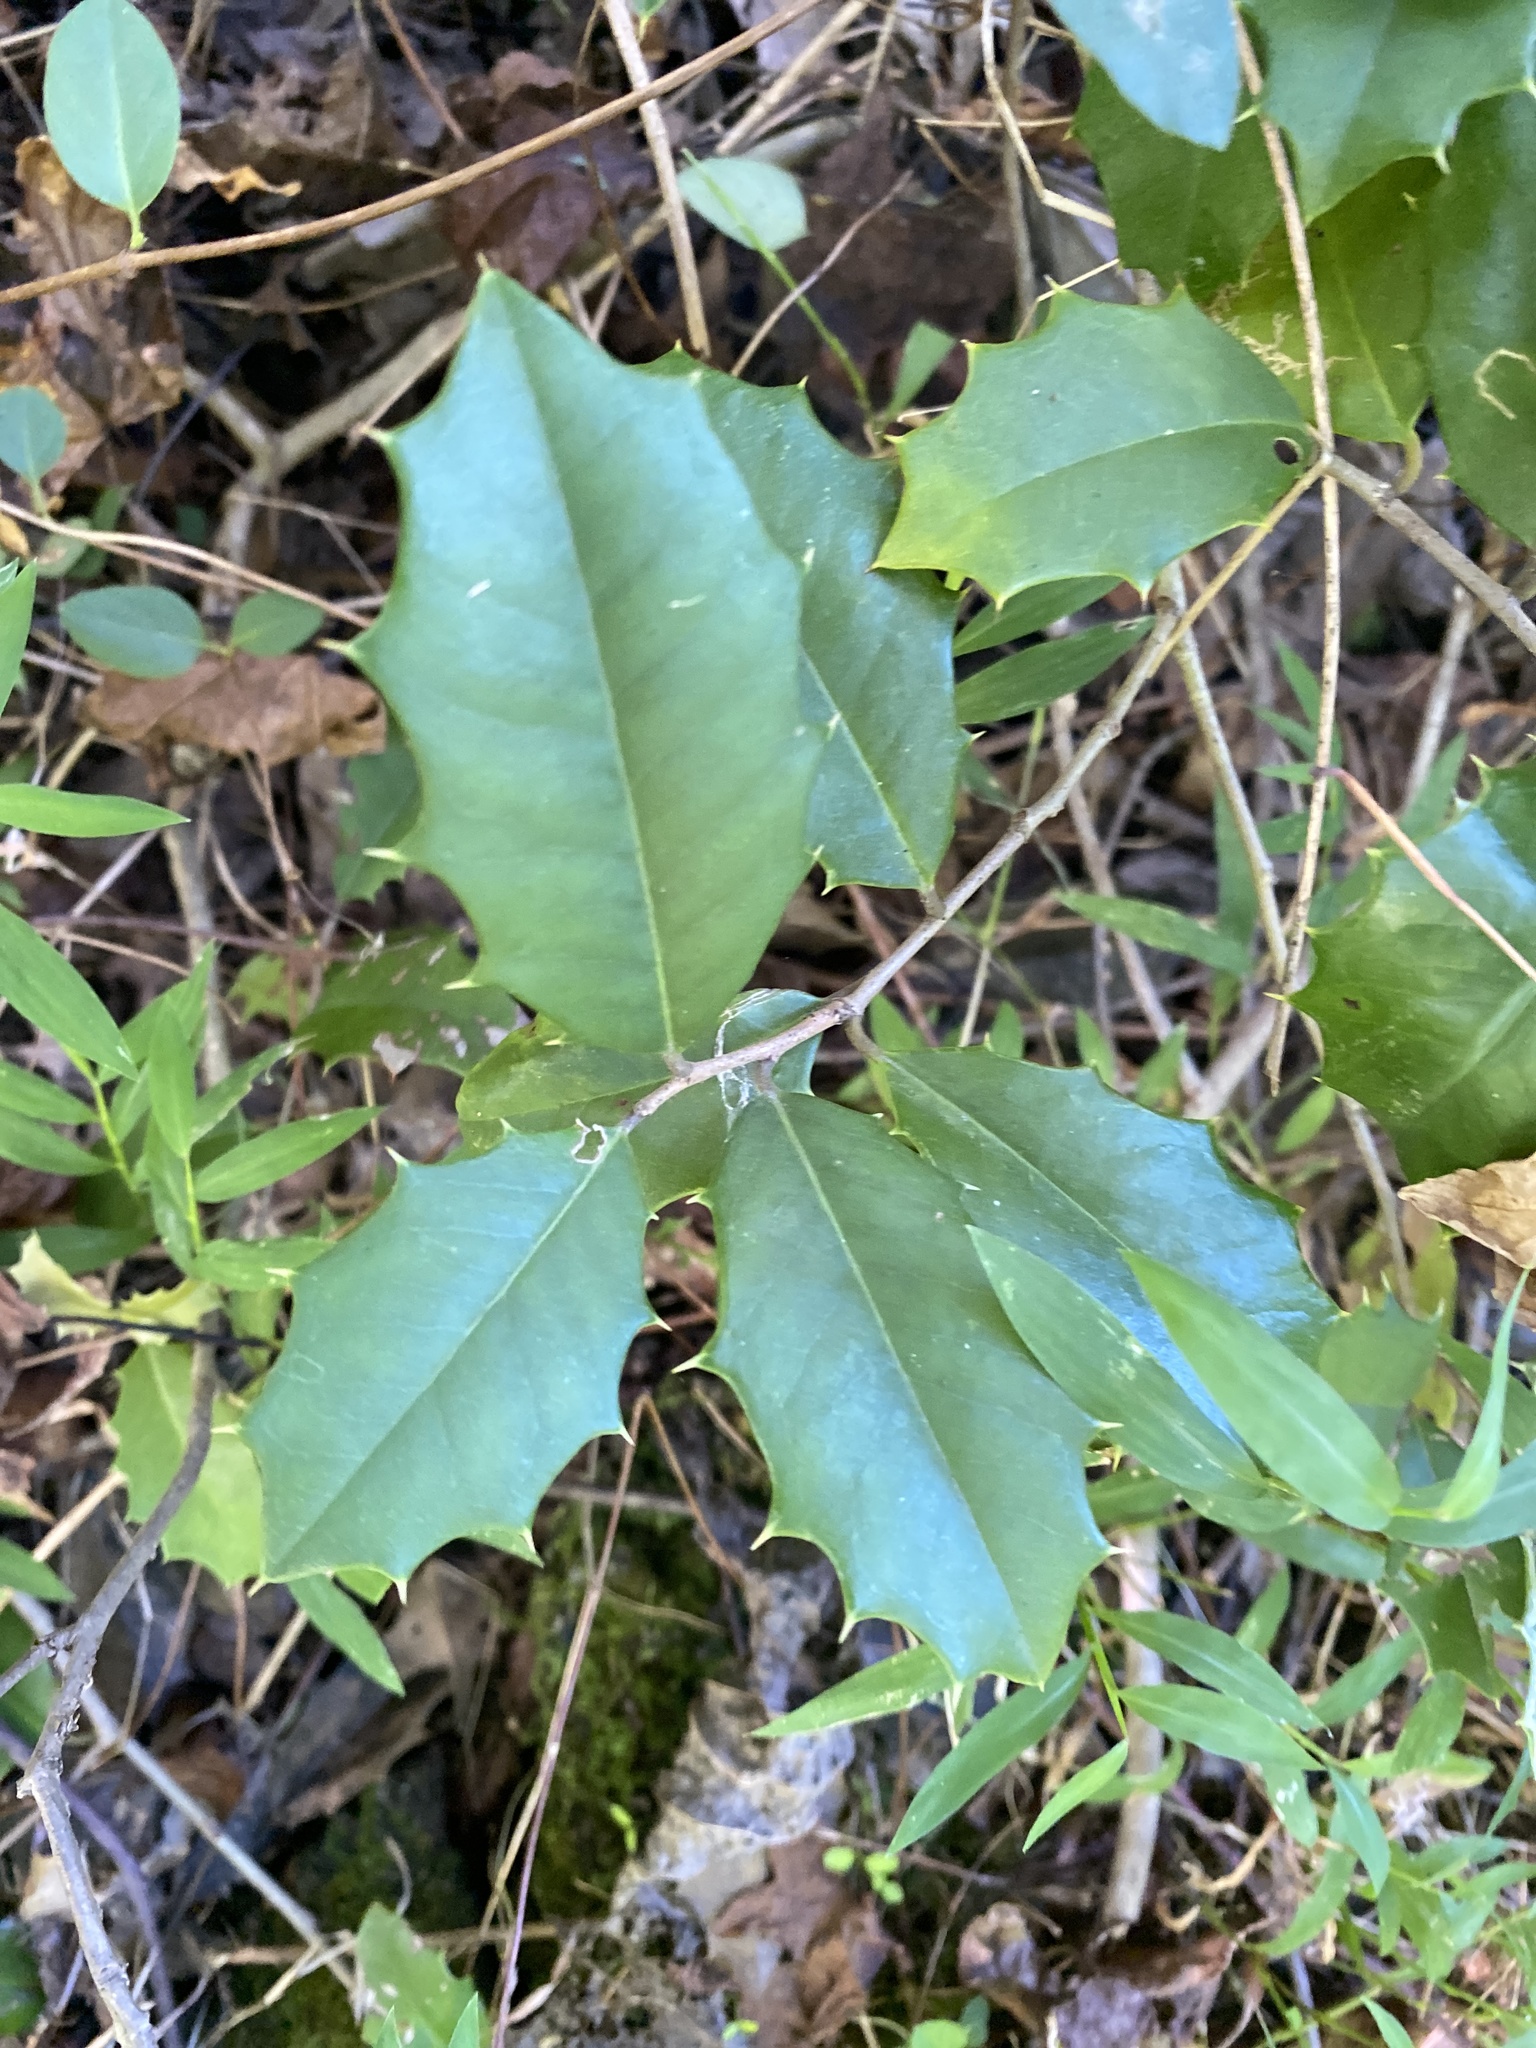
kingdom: Plantae
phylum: Tracheophyta
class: Magnoliopsida
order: Aquifoliales
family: Aquifoliaceae
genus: Ilex
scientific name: Ilex opaca
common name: American holly
